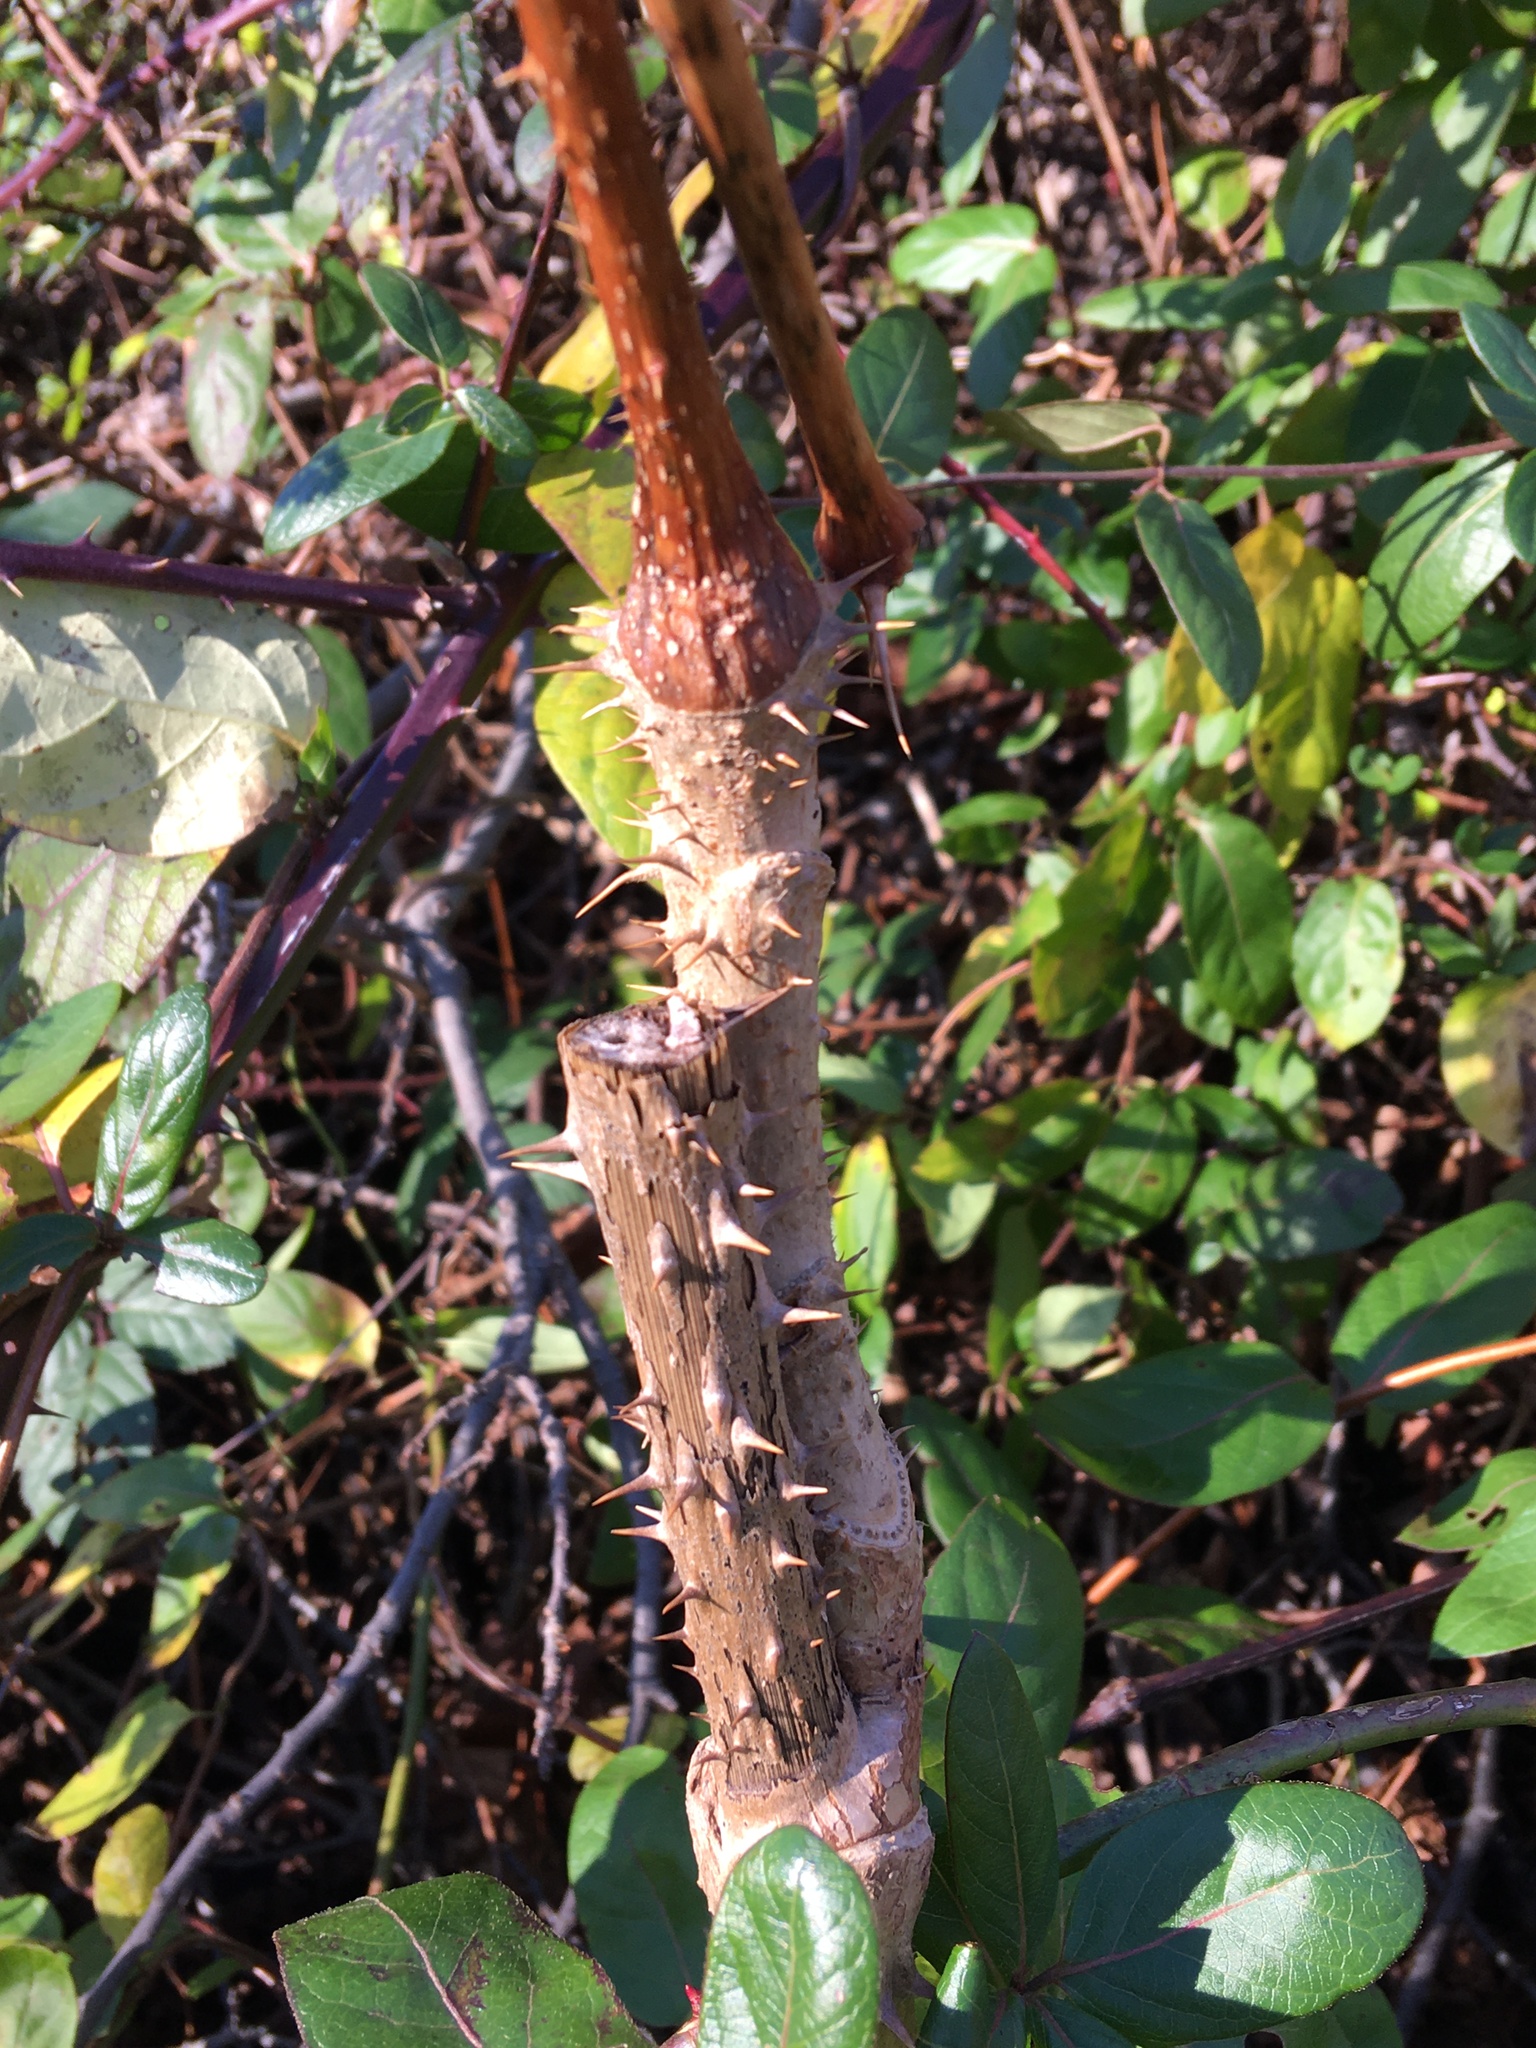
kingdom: Plantae
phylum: Tracheophyta
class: Magnoliopsida
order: Apiales
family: Araliaceae
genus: Aralia
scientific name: Aralia elata
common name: Japanese angelica-tree
